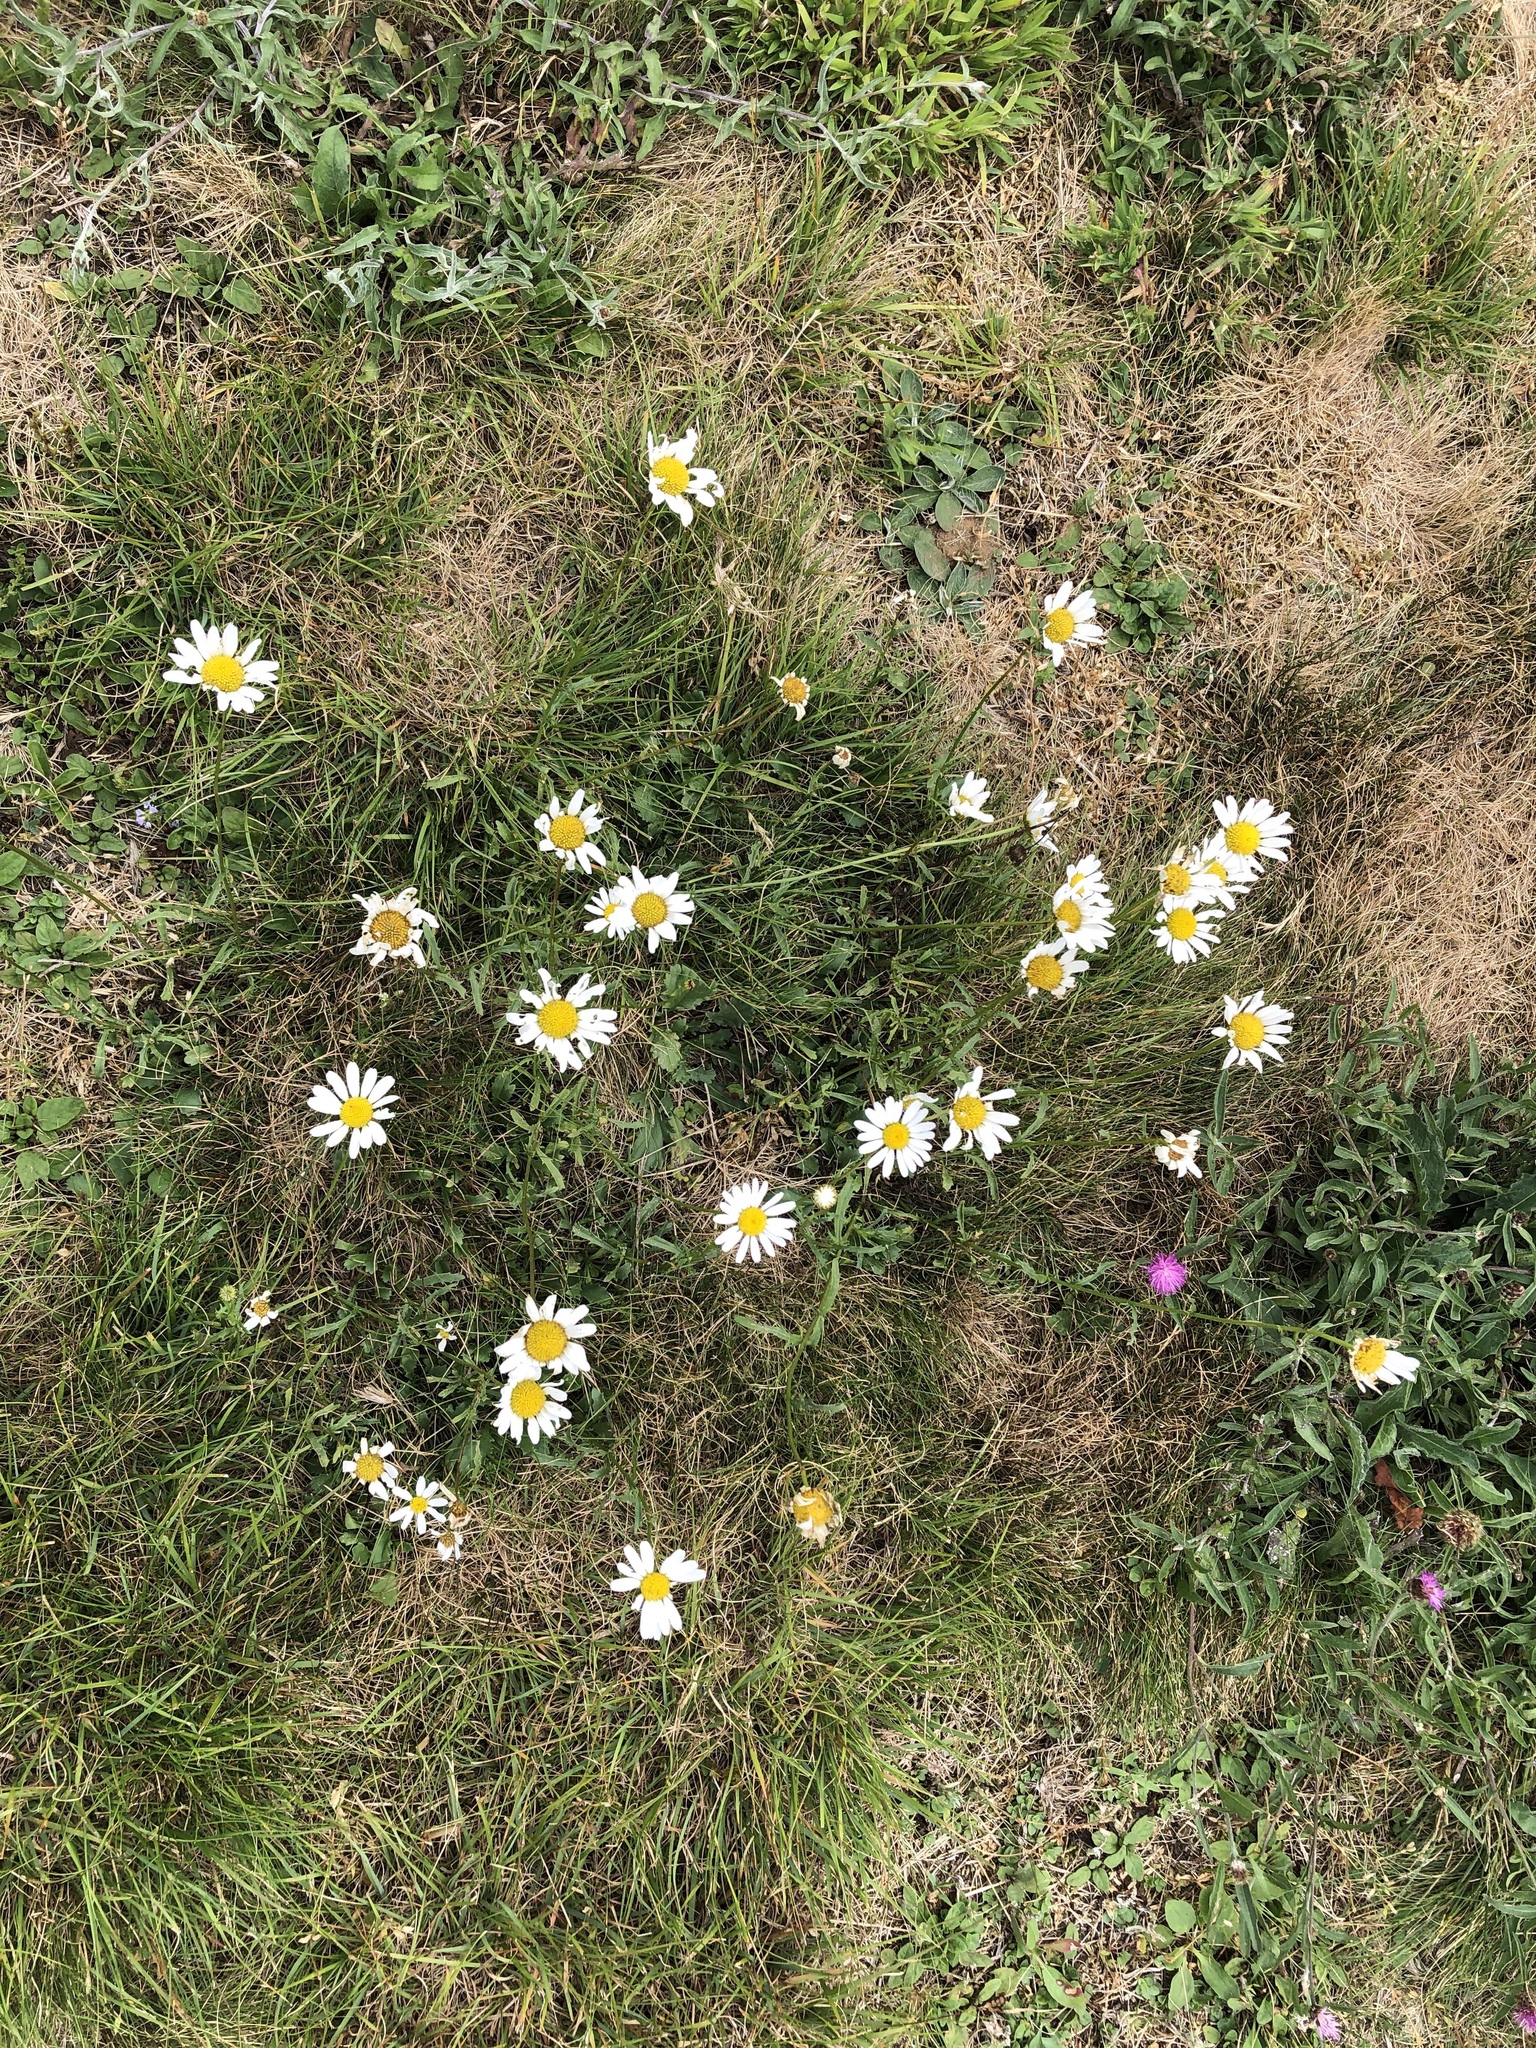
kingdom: Plantae
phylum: Tracheophyta
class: Magnoliopsida
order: Asterales
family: Asteraceae
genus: Leucanthemum
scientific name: Leucanthemum vulgare
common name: Oxeye daisy
